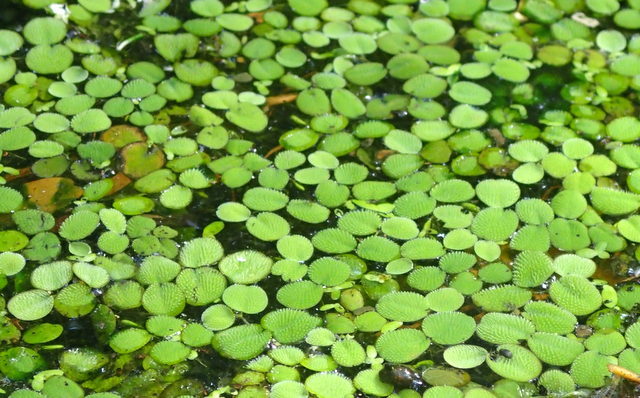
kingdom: Plantae
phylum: Tracheophyta
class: Polypodiopsida
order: Salviniales
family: Salviniaceae
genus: Salvinia
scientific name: Salvinia minima
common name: Water spangles
